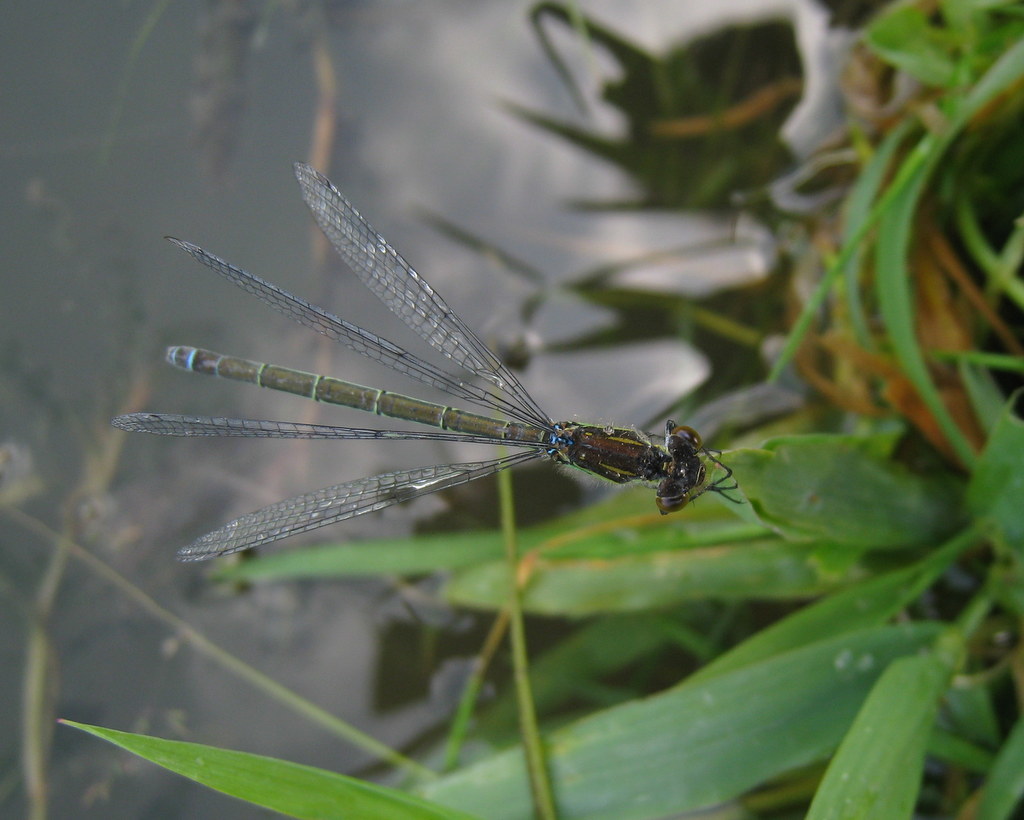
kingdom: Animalia
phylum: Arthropoda
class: Insecta
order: Odonata
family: Coenagrionidae
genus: Erythromma
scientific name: Erythromma najas
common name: Red-eyed damselfly
